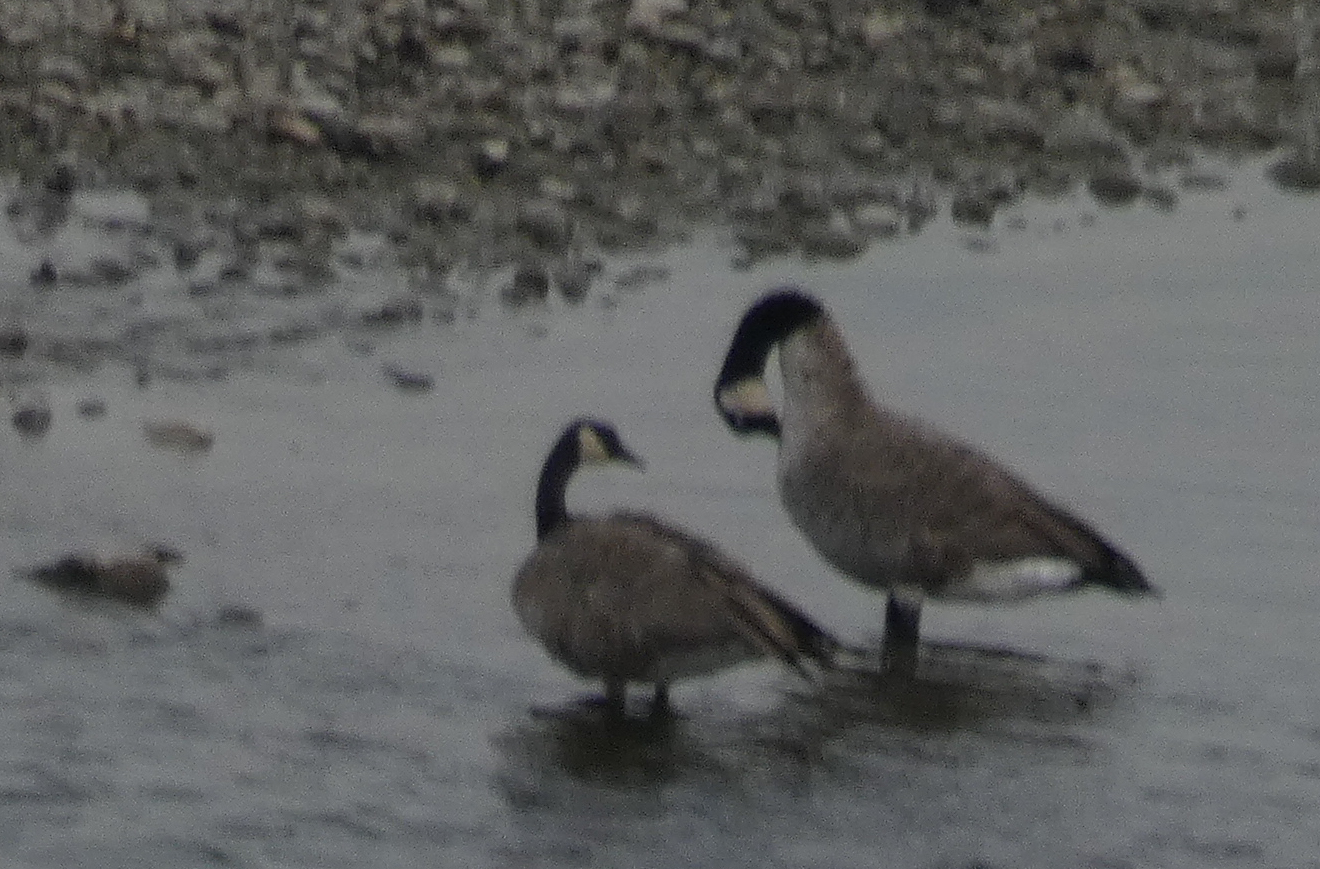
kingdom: Animalia
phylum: Chordata
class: Aves
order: Anseriformes
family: Anatidae
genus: Branta
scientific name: Branta canadensis
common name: Canada goose
